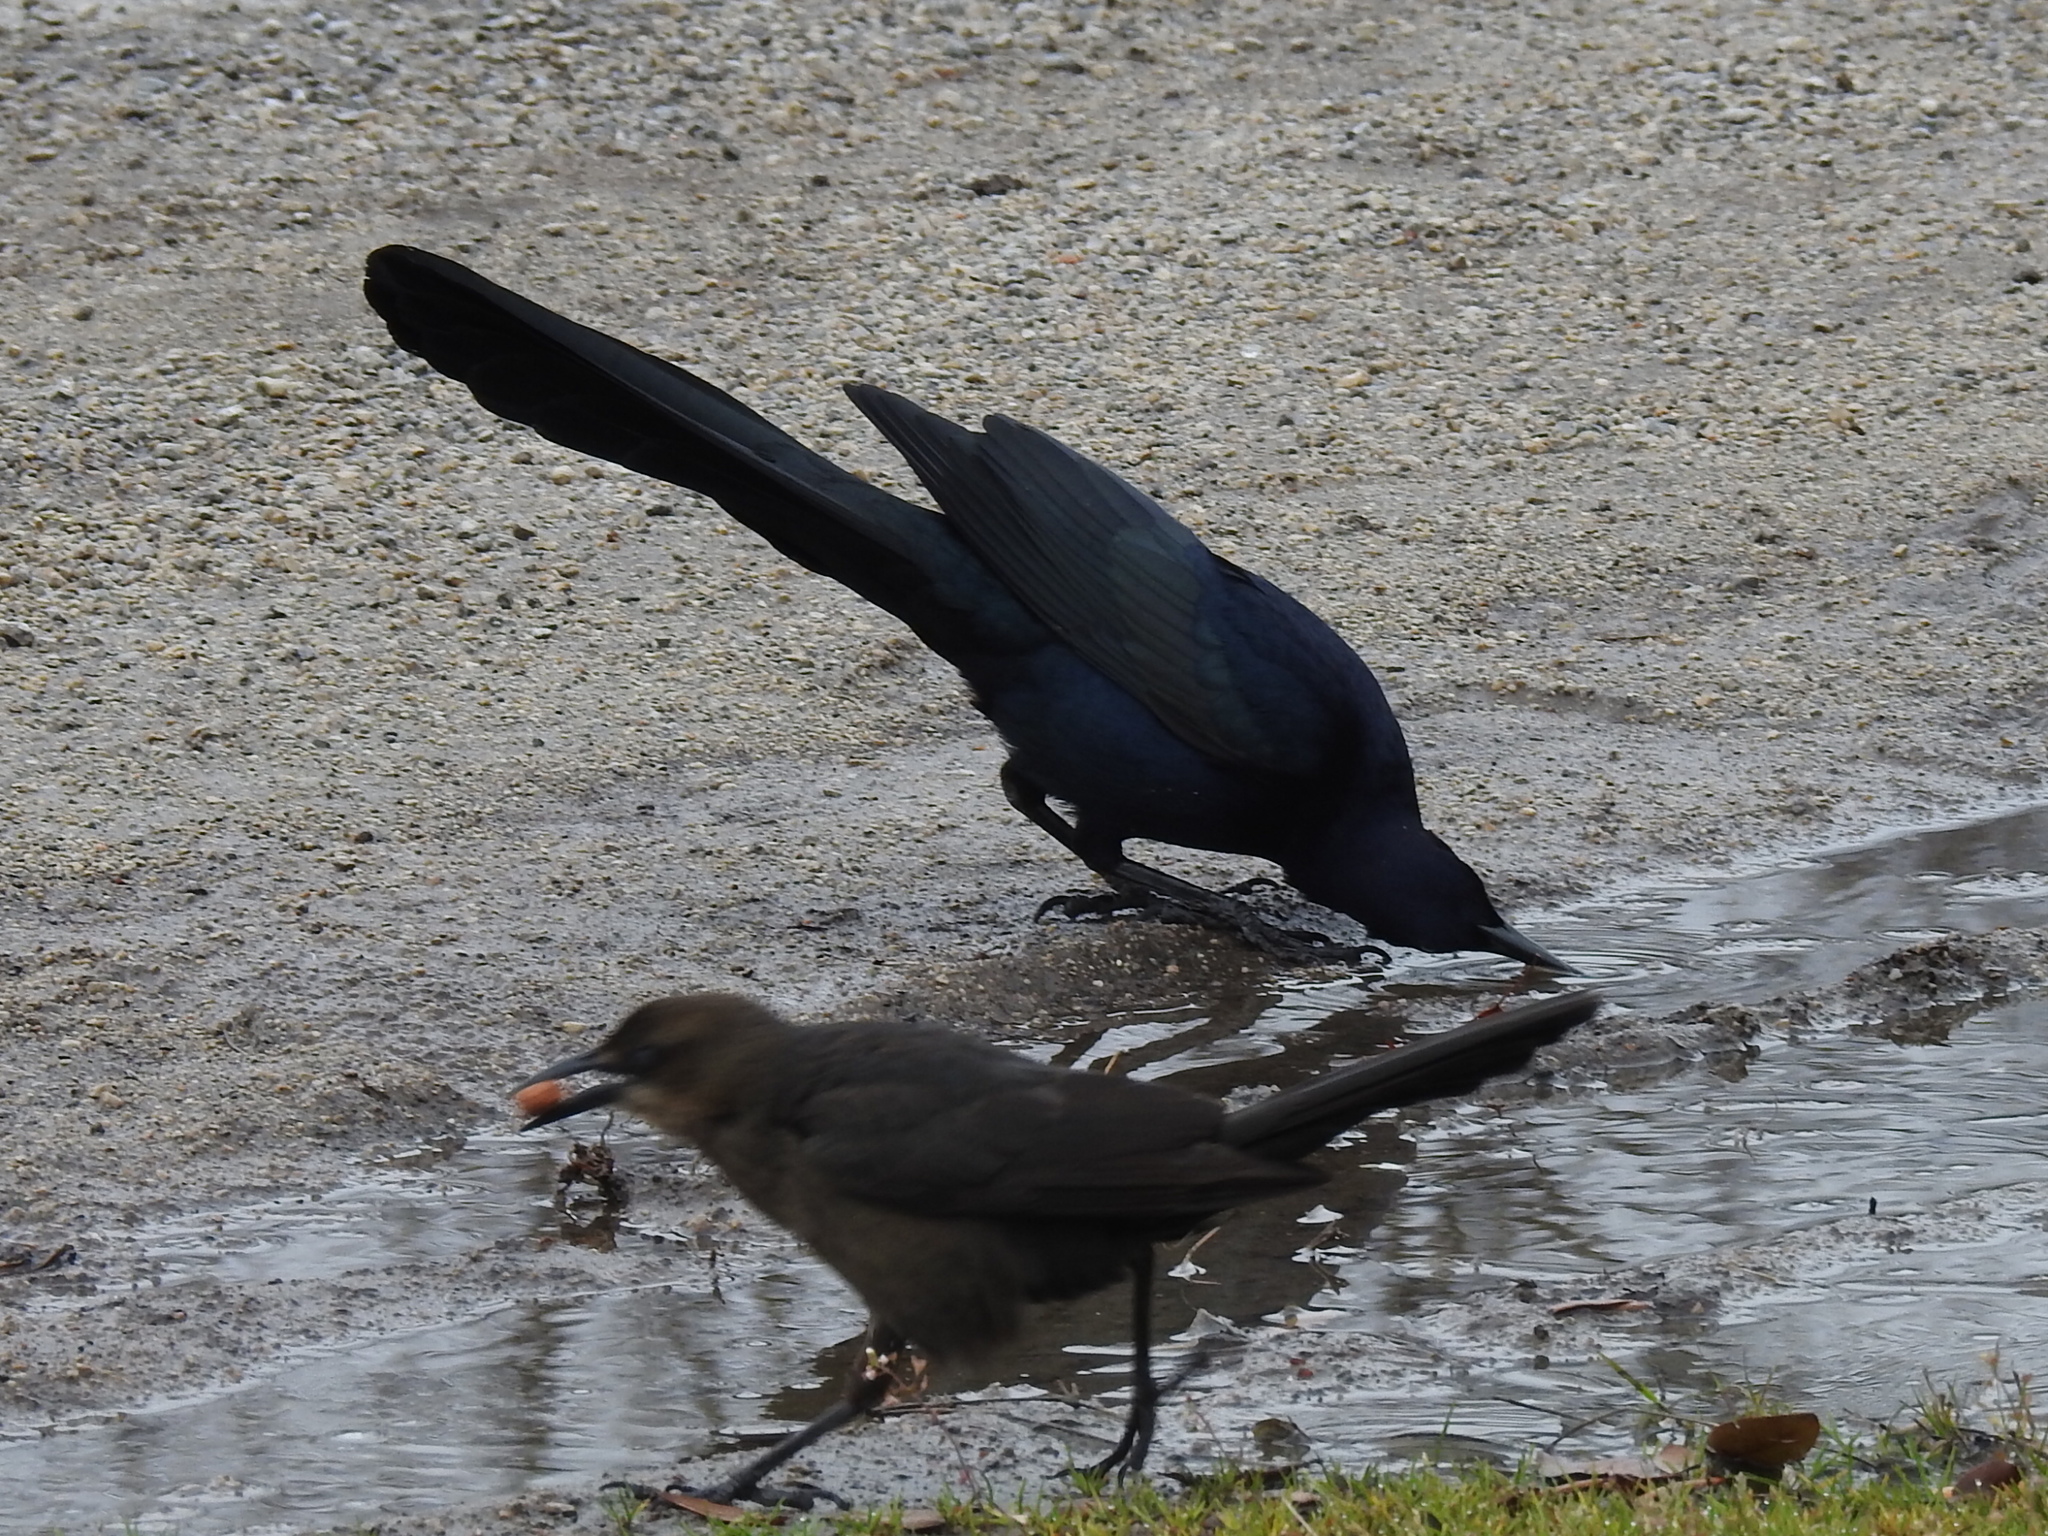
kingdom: Animalia
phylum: Chordata
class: Aves
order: Passeriformes
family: Icteridae
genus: Quiscalus
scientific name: Quiscalus mexicanus
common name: Great-tailed grackle
